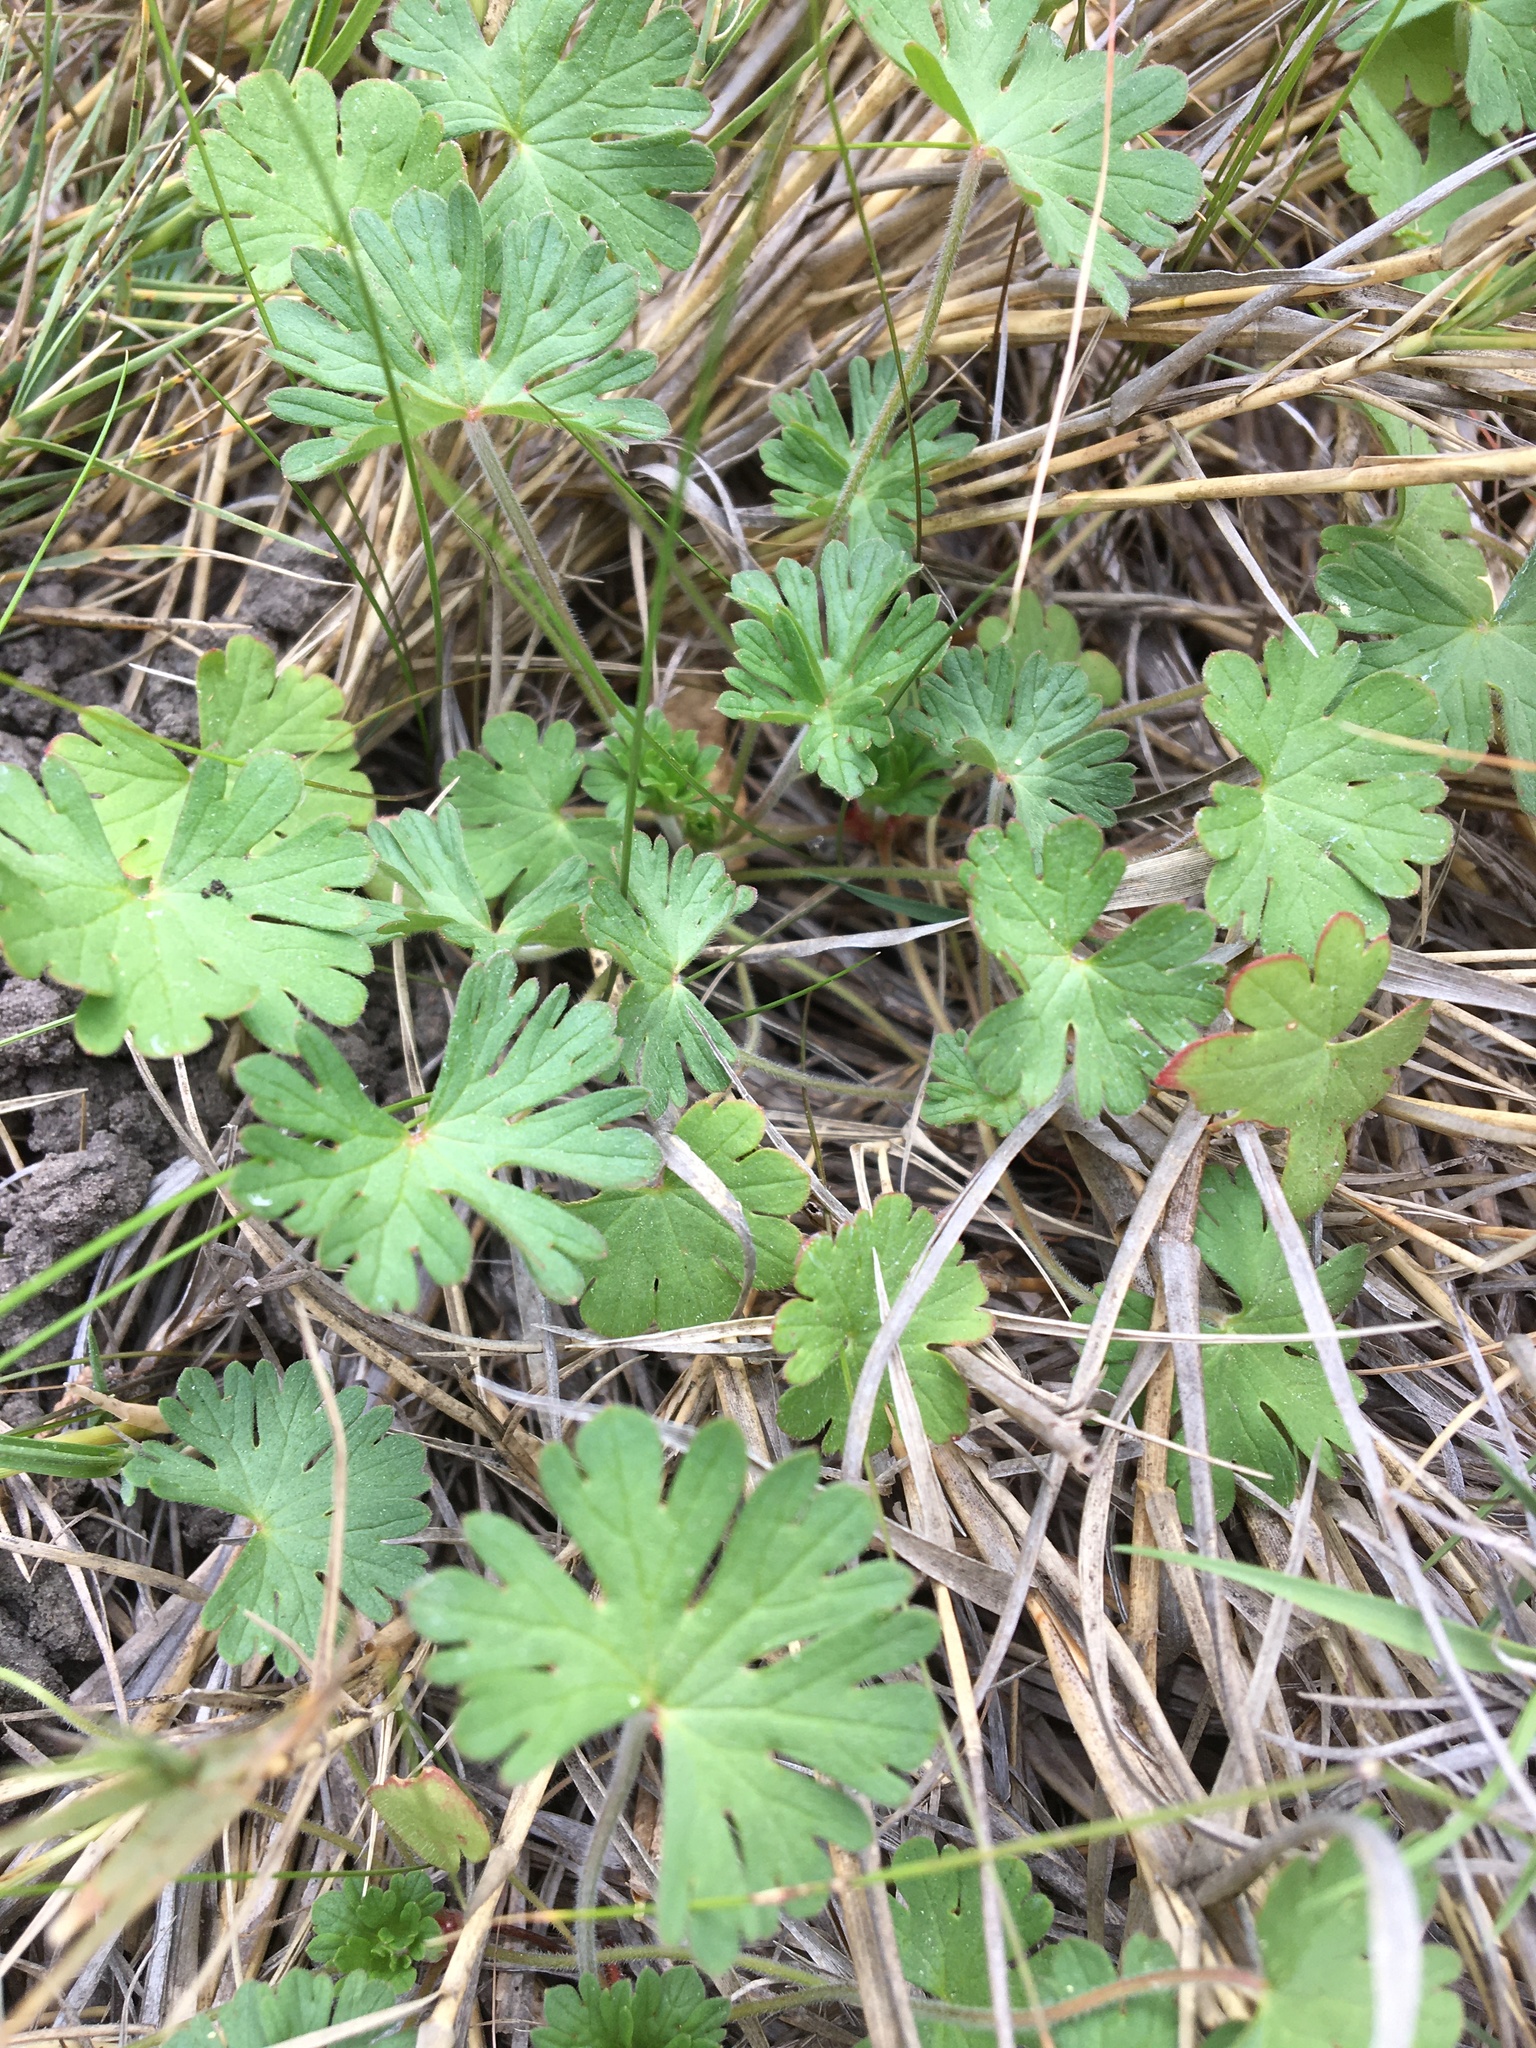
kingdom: Plantae
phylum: Tracheophyta
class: Magnoliopsida
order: Geraniales
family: Geraniaceae
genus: Geranium
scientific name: Geranium
